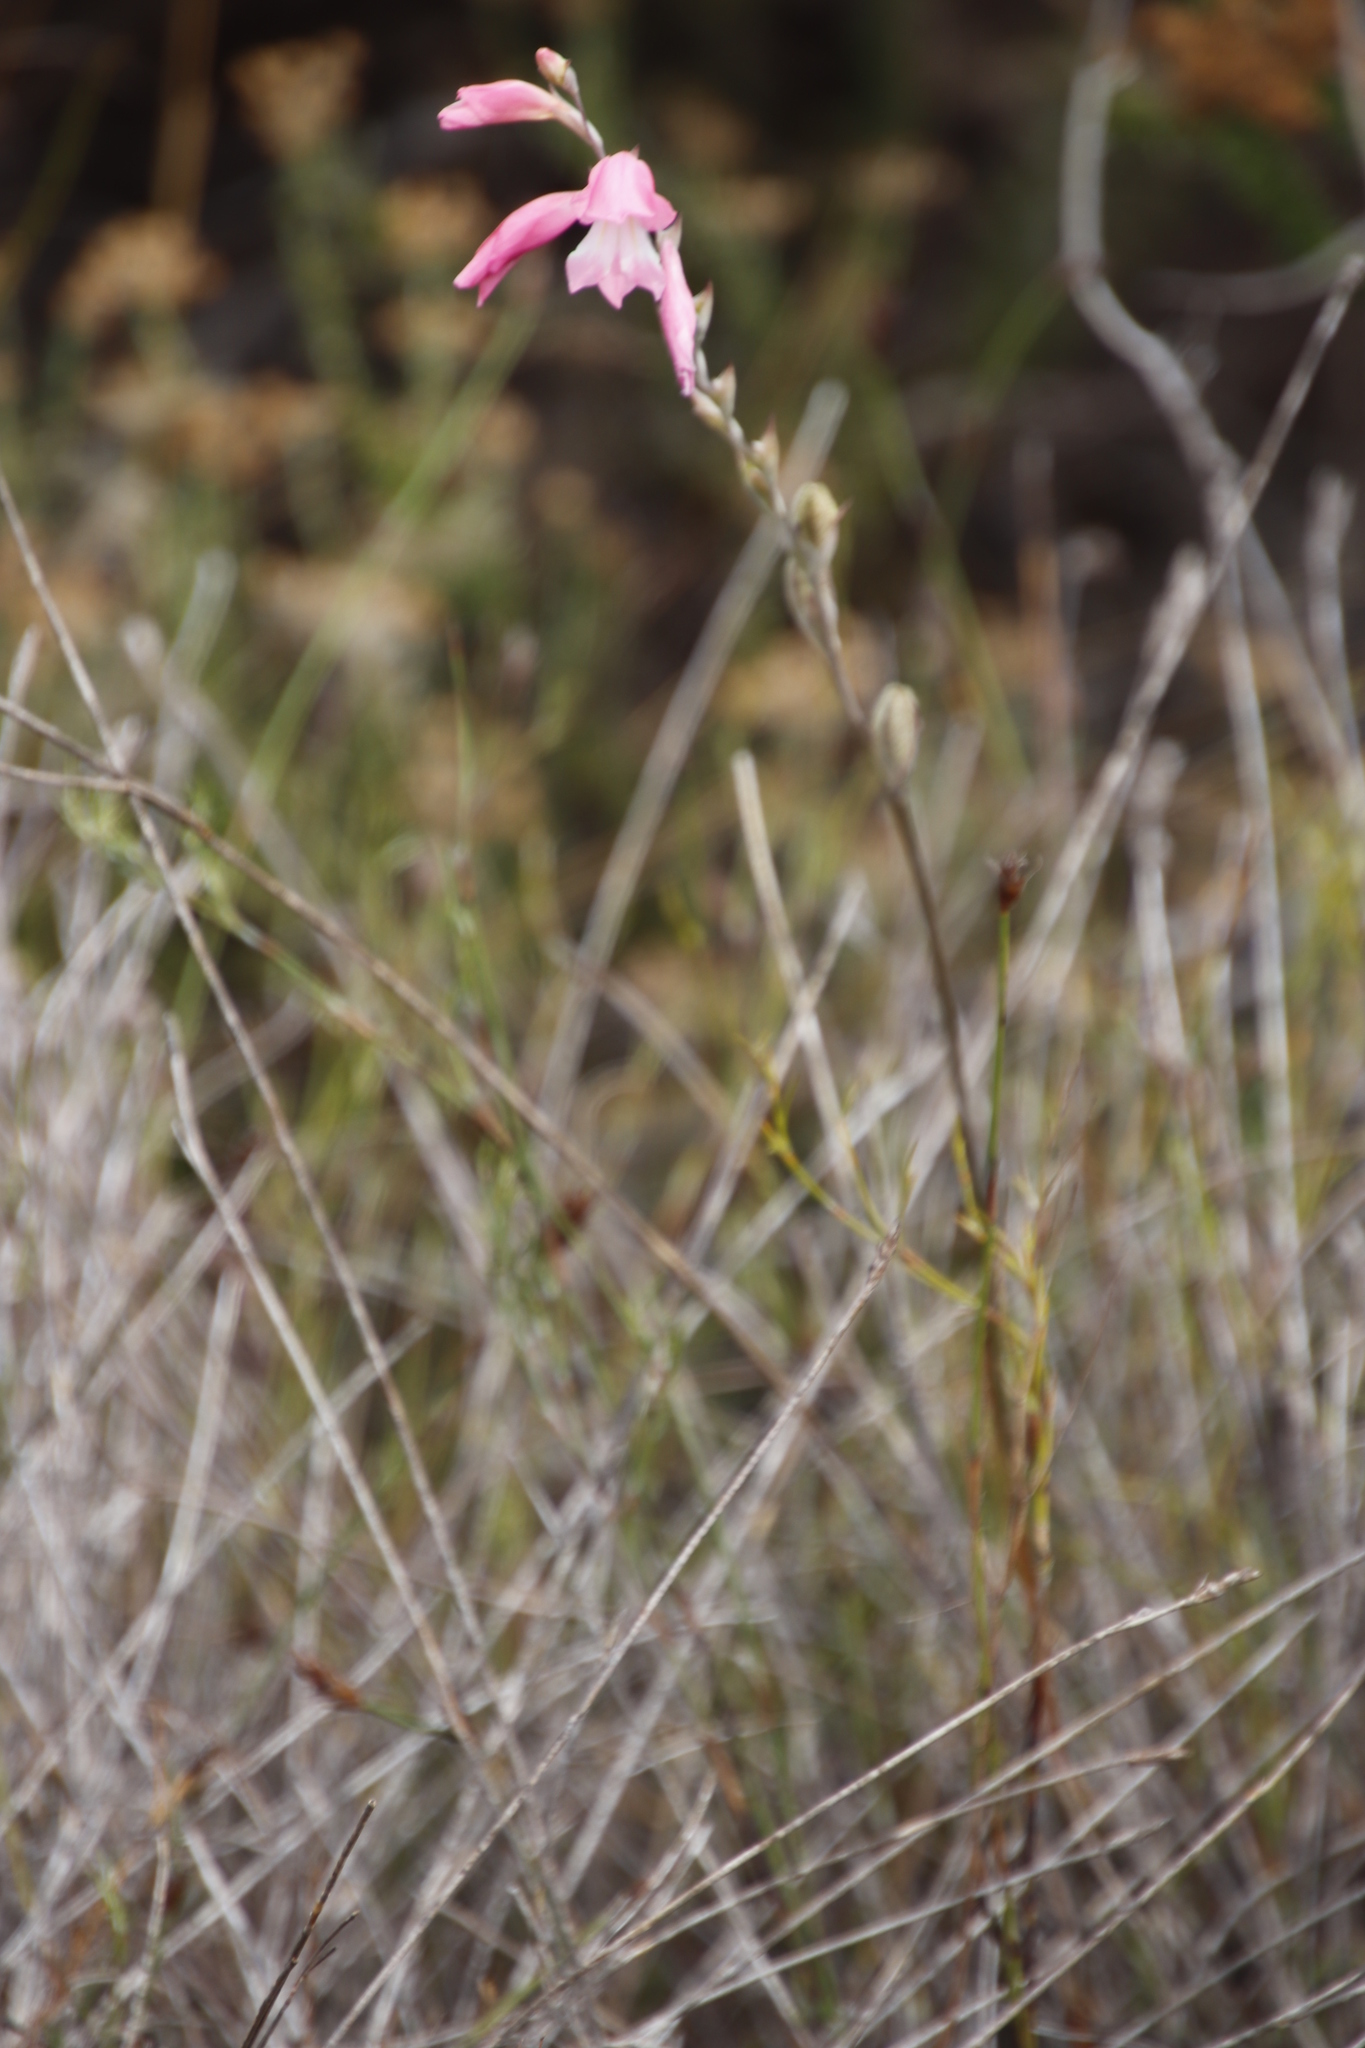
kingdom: Plantae
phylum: Tracheophyta
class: Liliopsida
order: Asparagales
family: Iridaceae
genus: Gladiolus
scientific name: Gladiolus brevifolius
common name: March pypie
